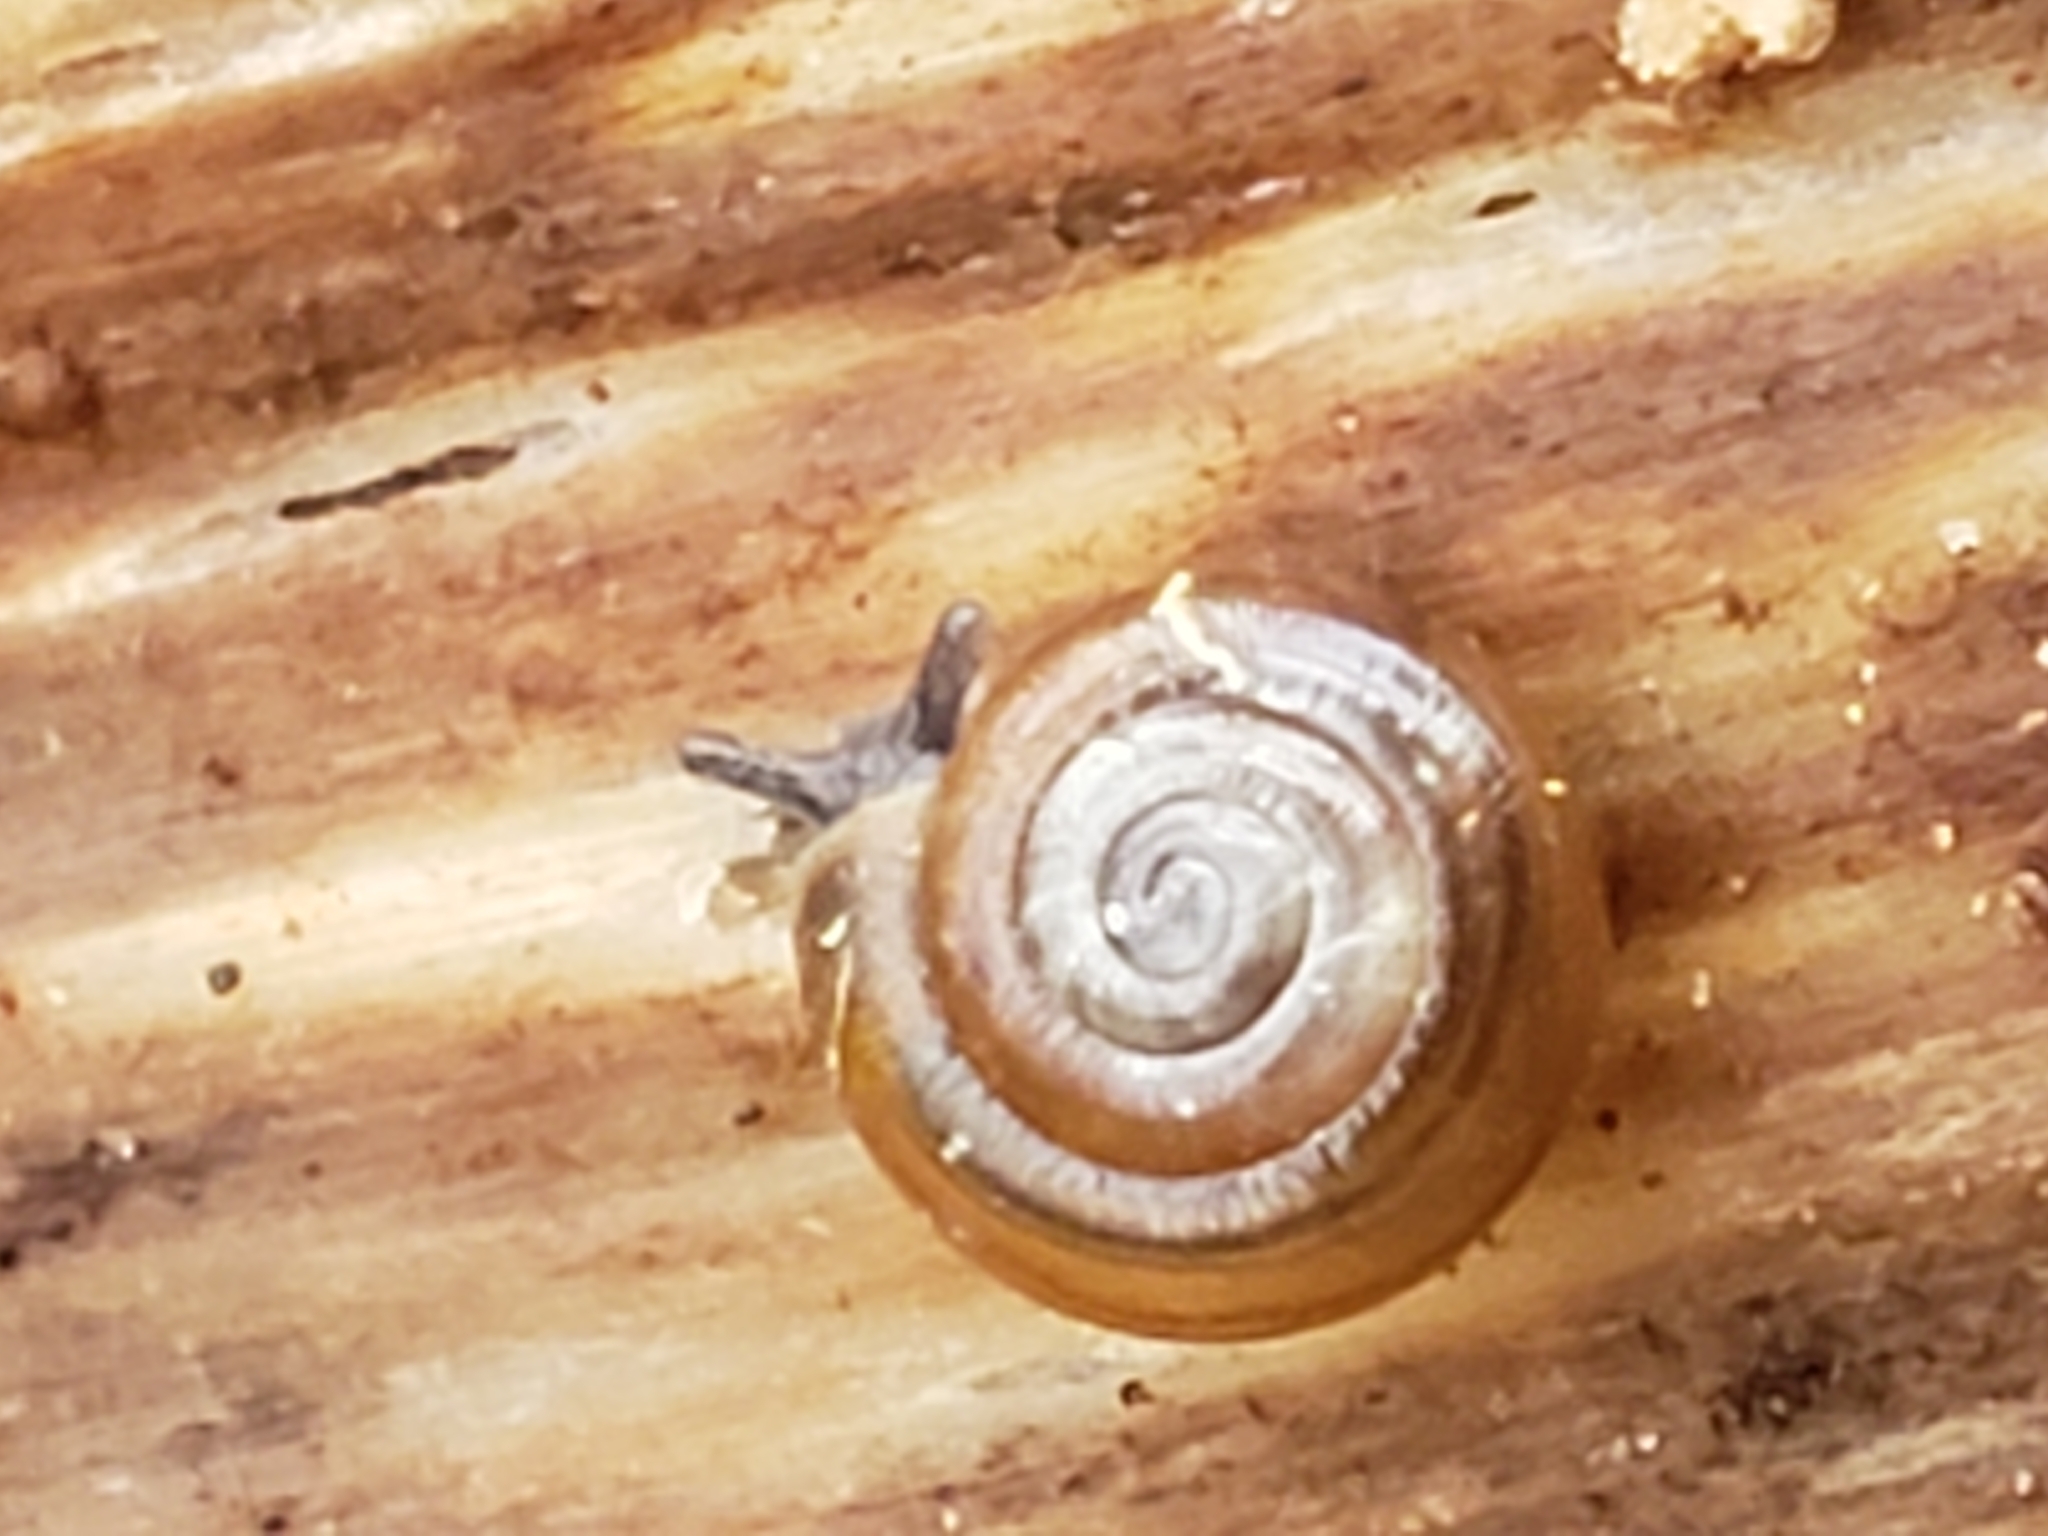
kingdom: Animalia
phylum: Mollusca
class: Gastropoda
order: Stylommatophora
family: Gastrodontidae
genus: Zonitoides
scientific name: Zonitoides arboreus
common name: Quick gloss
